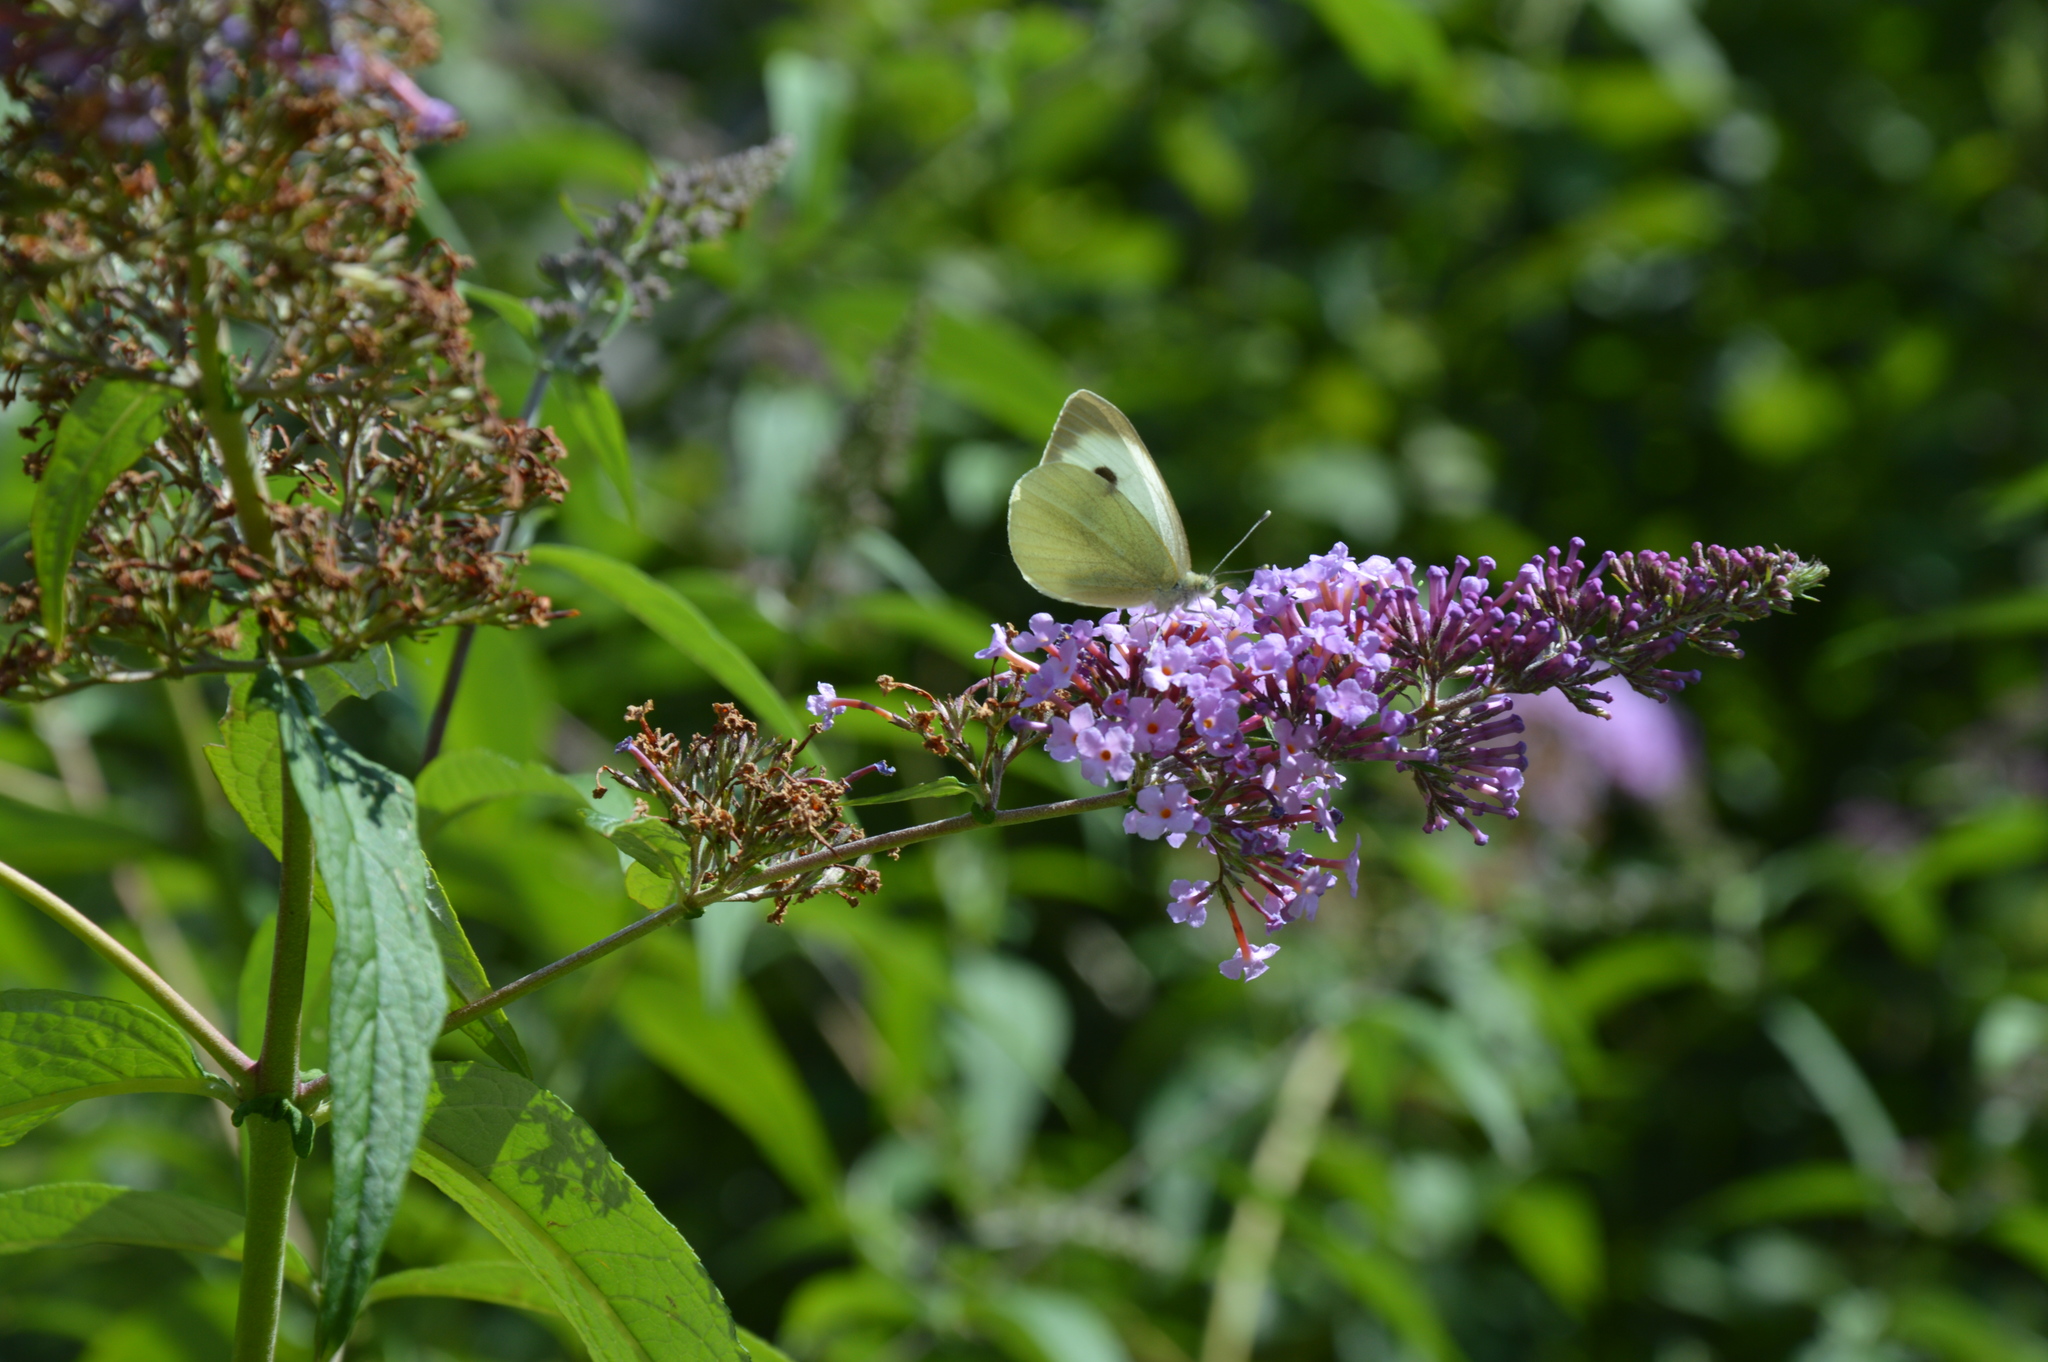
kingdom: Animalia
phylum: Arthropoda
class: Insecta
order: Lepidoptera
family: Pieridae
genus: Pieris
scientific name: Pieris brassicae
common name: Large white
